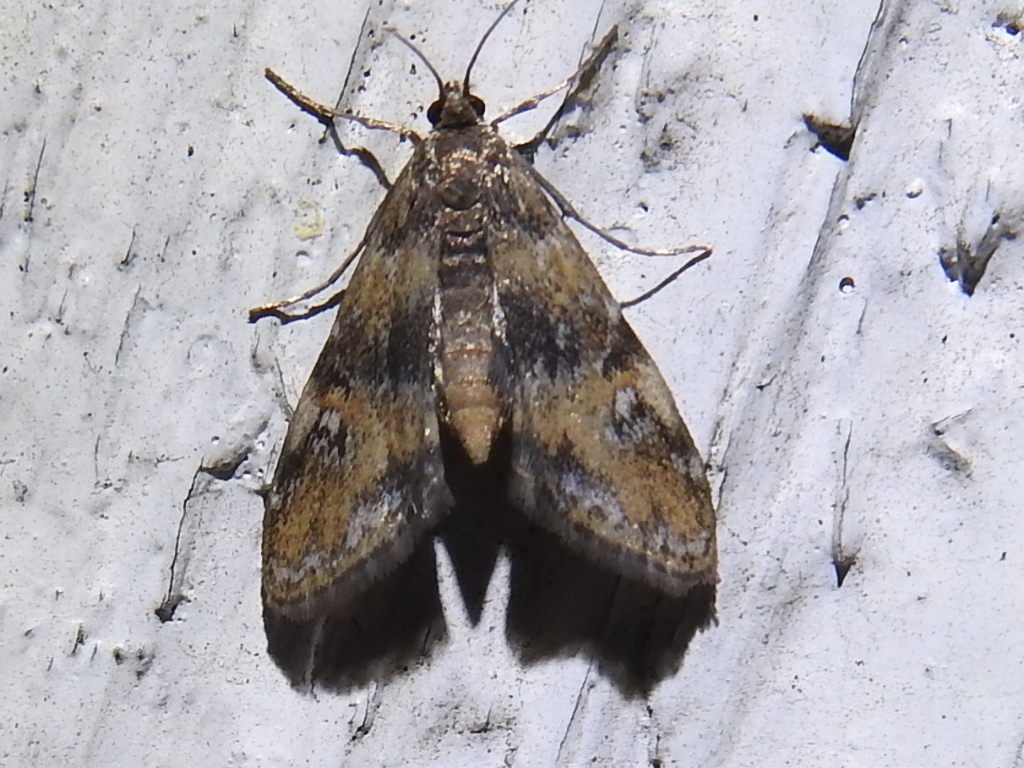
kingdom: Animalia
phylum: Arthropoda
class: Insecta
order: Lepidoptera
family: Crambidae
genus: Elophila
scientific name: Elophila obliteralis
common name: Waterlily leafcutter moth
